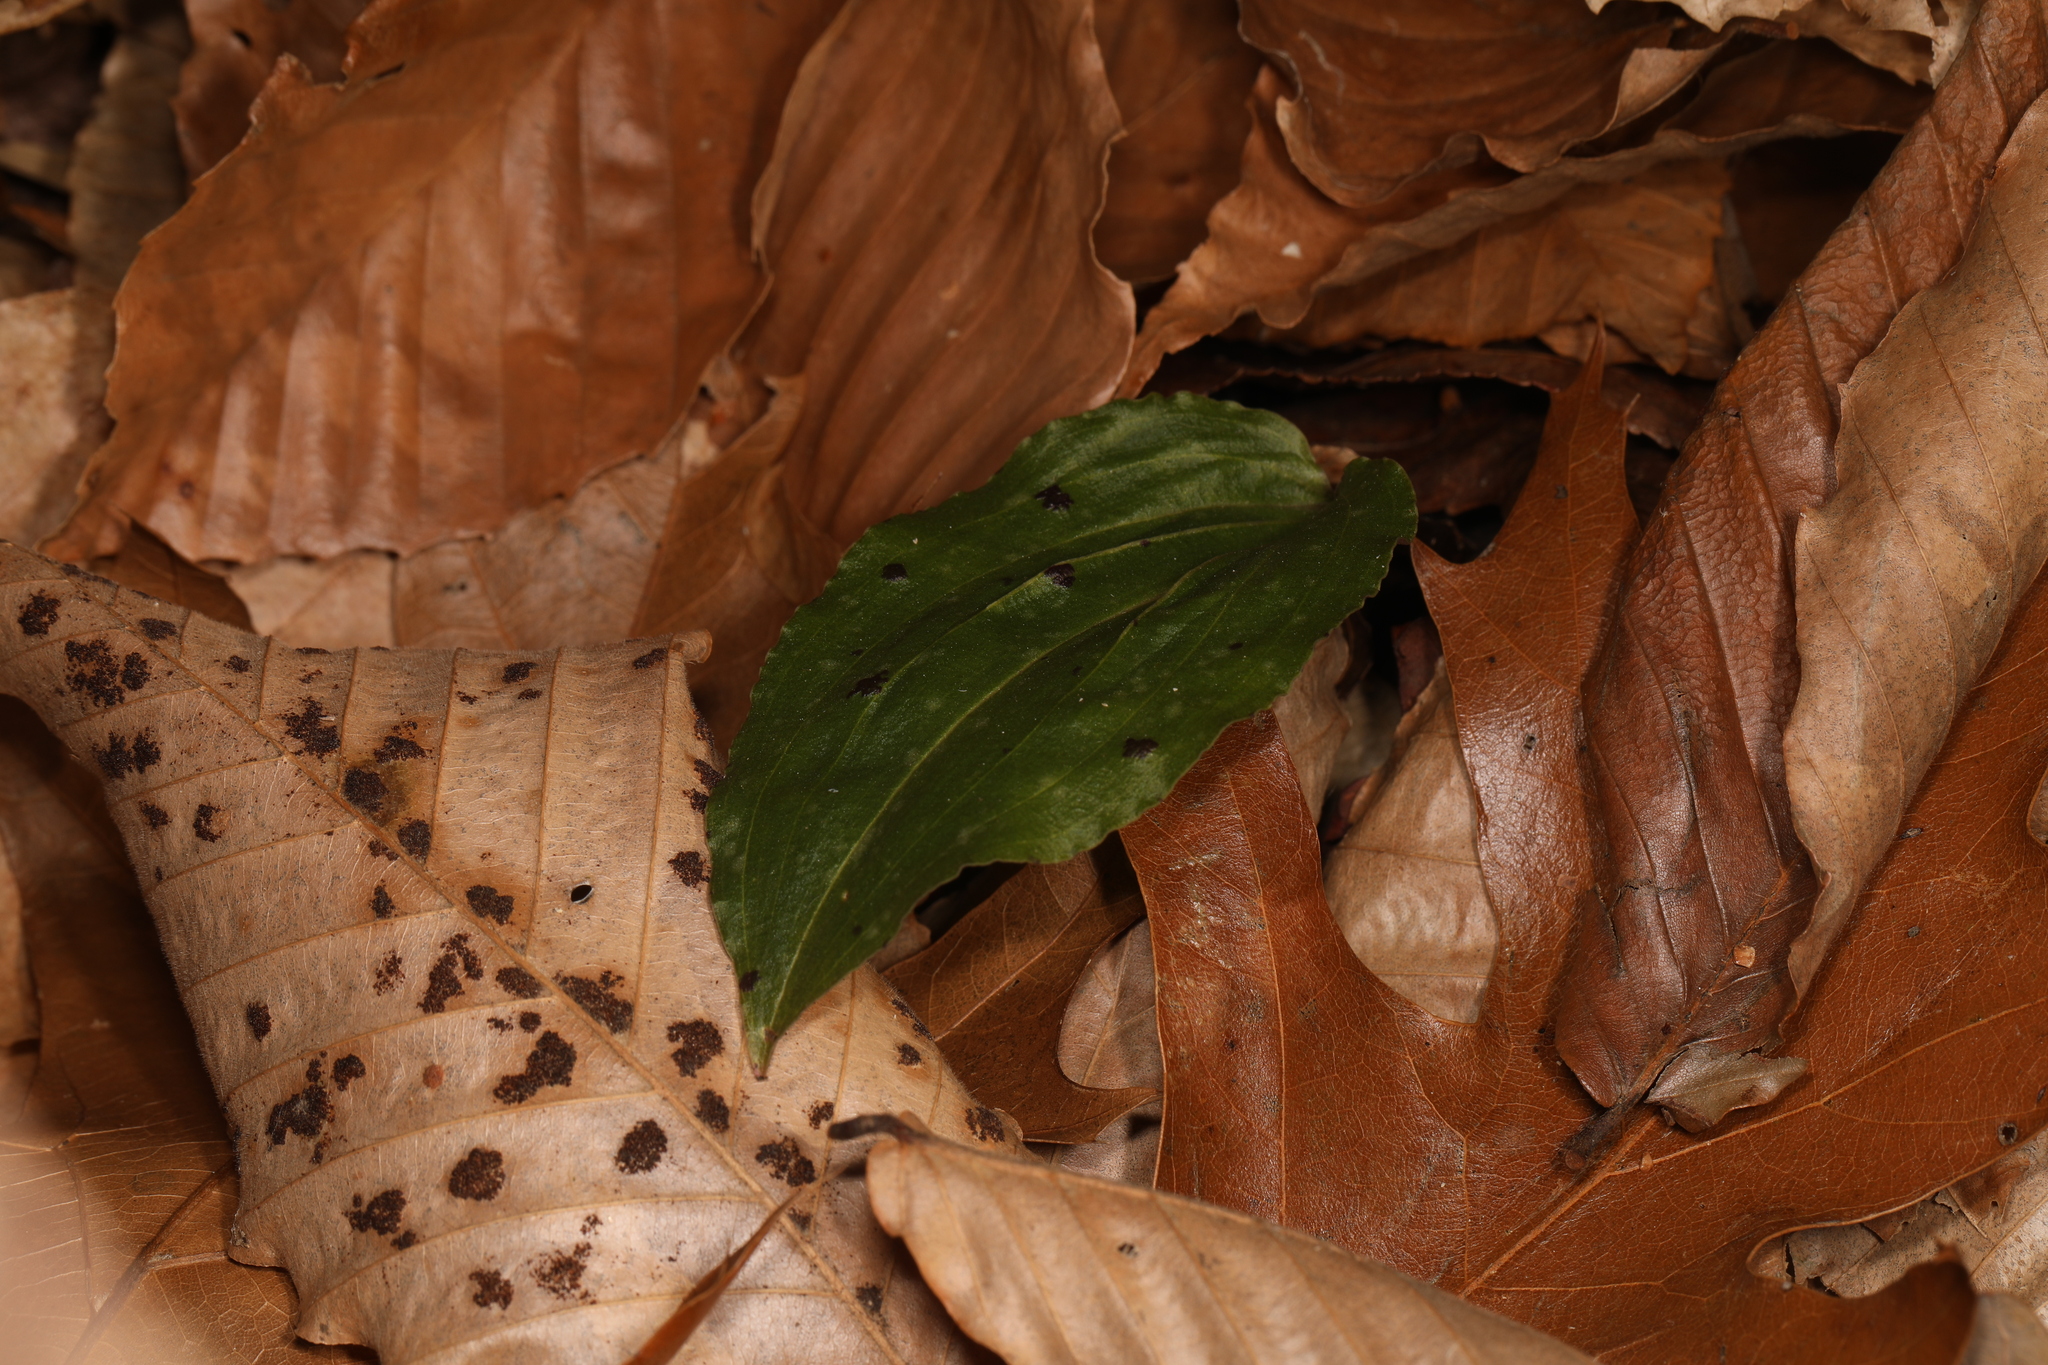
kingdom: Plantae
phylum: Tracheophyta
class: Liliopsida
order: Asparagales
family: Orchidaceae
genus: Tipularia
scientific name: Tipularia discolor
